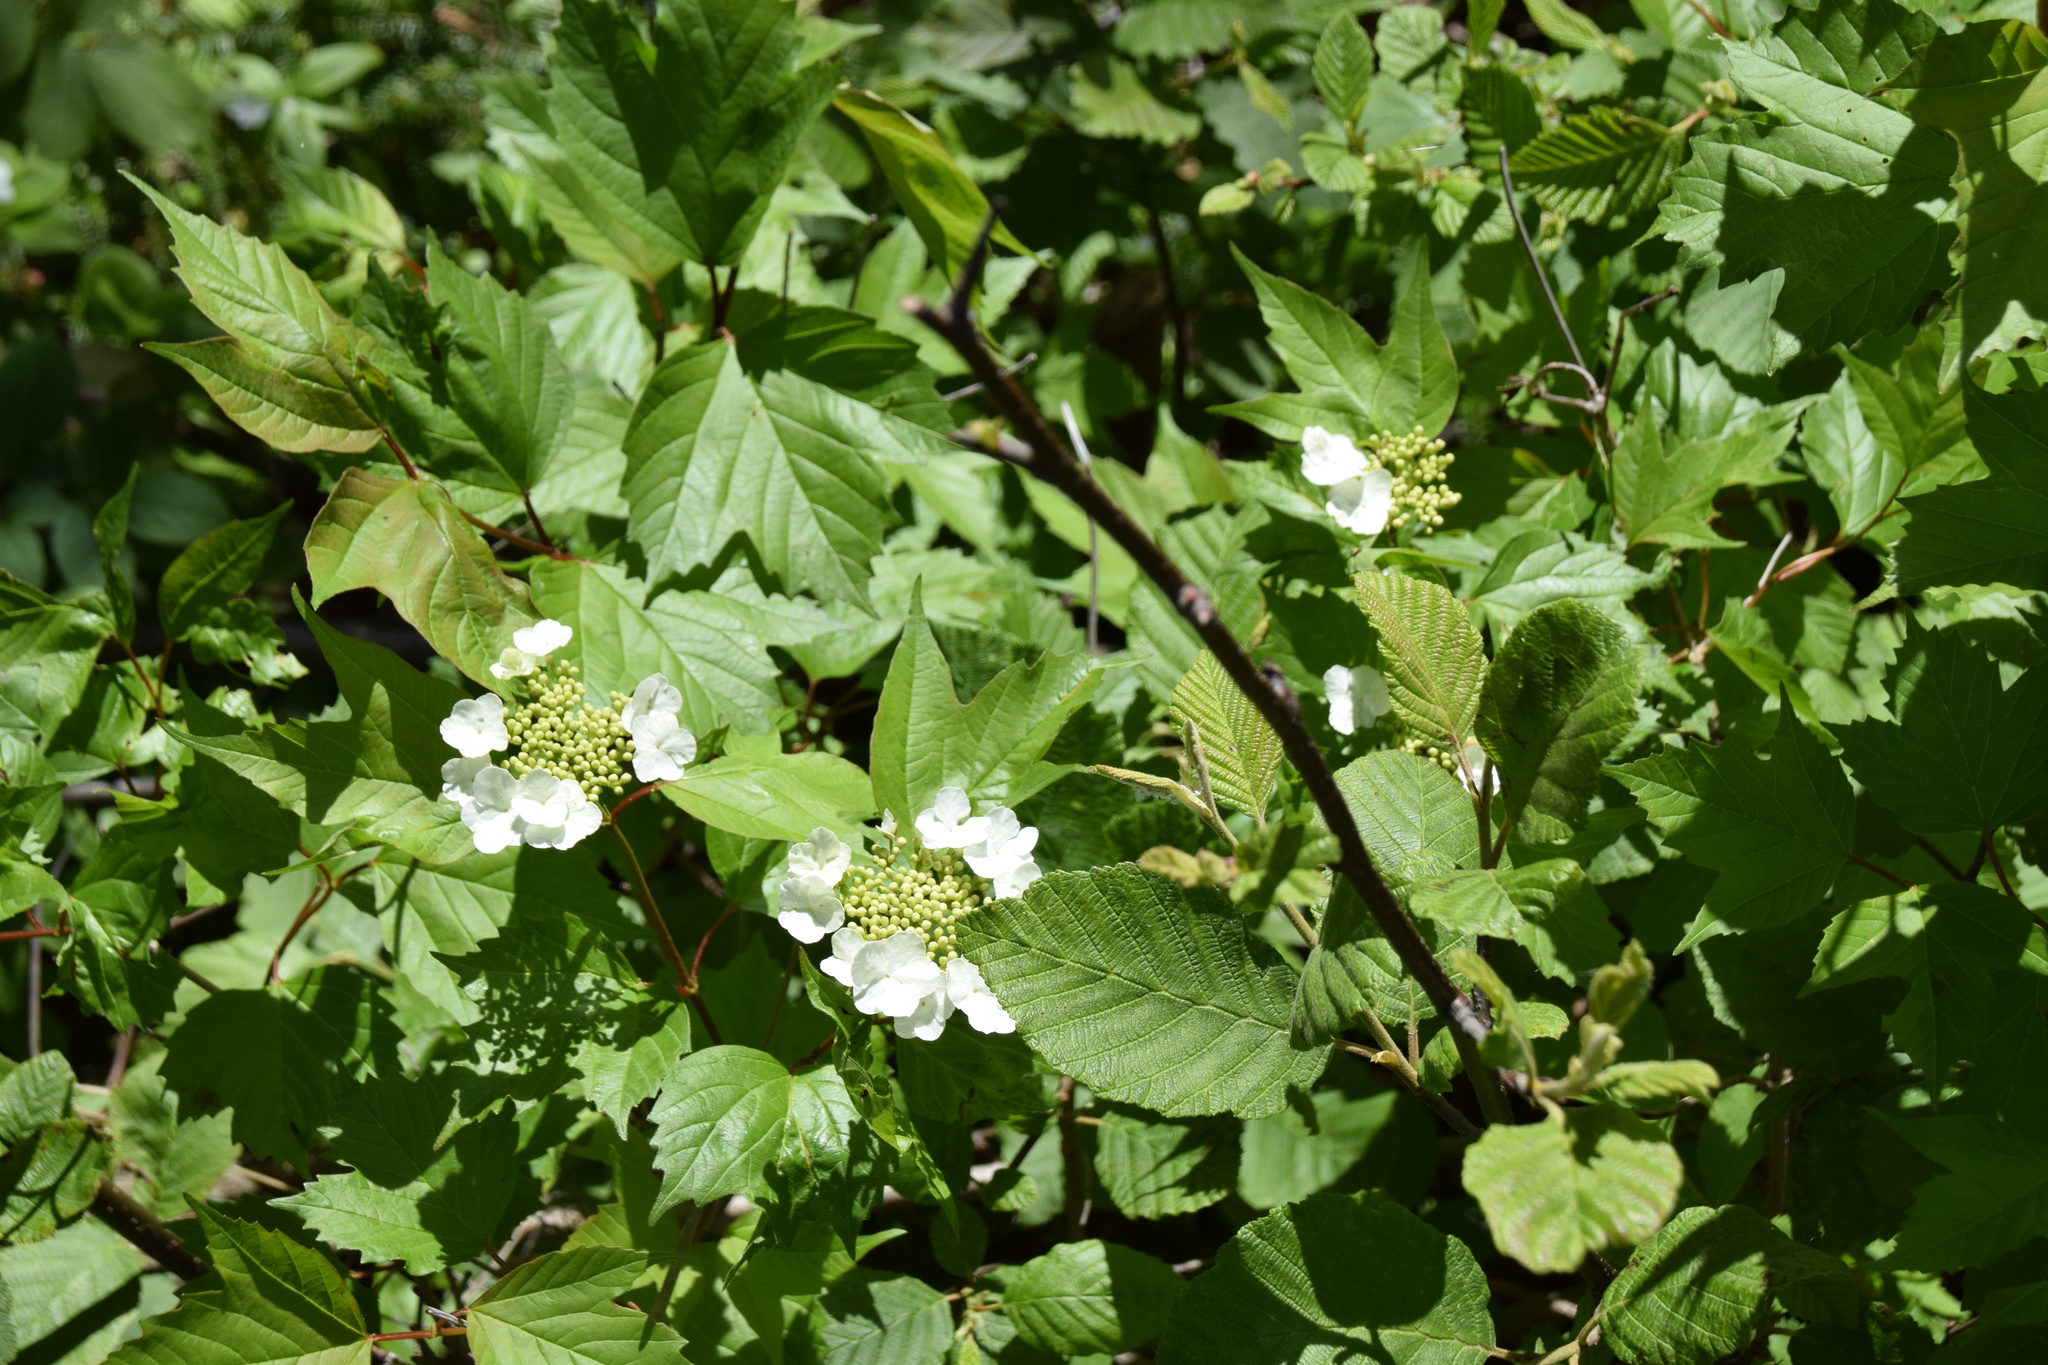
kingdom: Plantae
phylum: Tracheophyta
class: Magnoliopsida
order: Dipsacales
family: Viburnaceae
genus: Viburnum
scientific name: Viburnum opulus
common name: Guelder-rose
